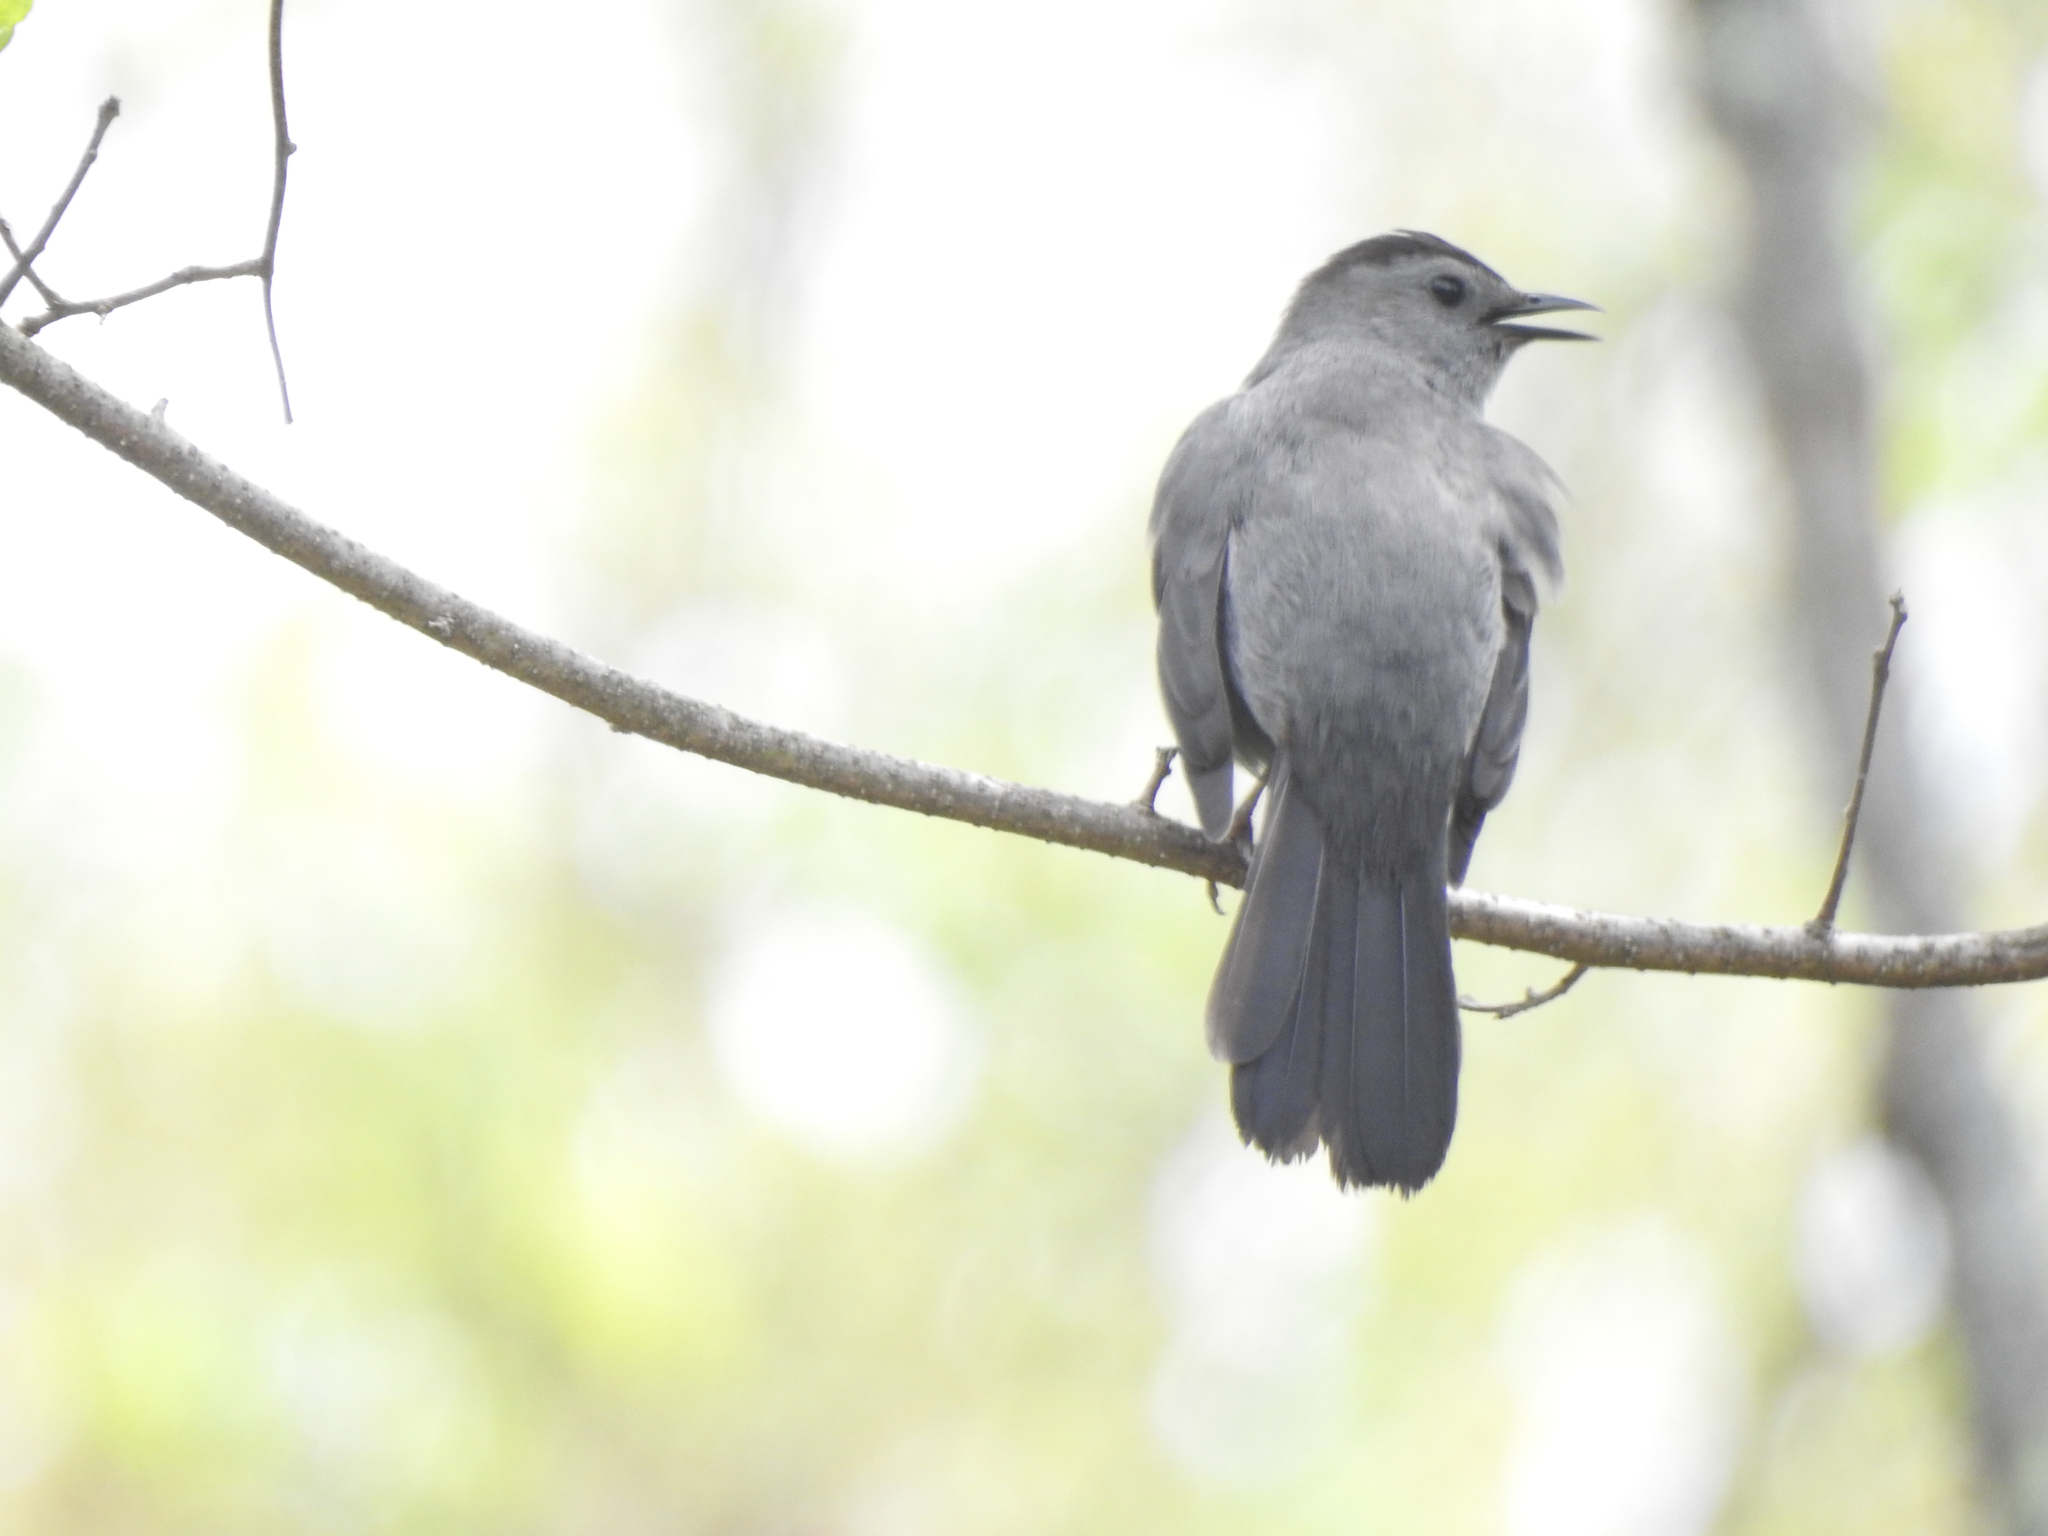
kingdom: Animalia
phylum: Chordata
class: Aves
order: Passeriformes
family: Mimidae
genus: Dumetella
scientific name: Dumetella carolinensis
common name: Gray catbird
